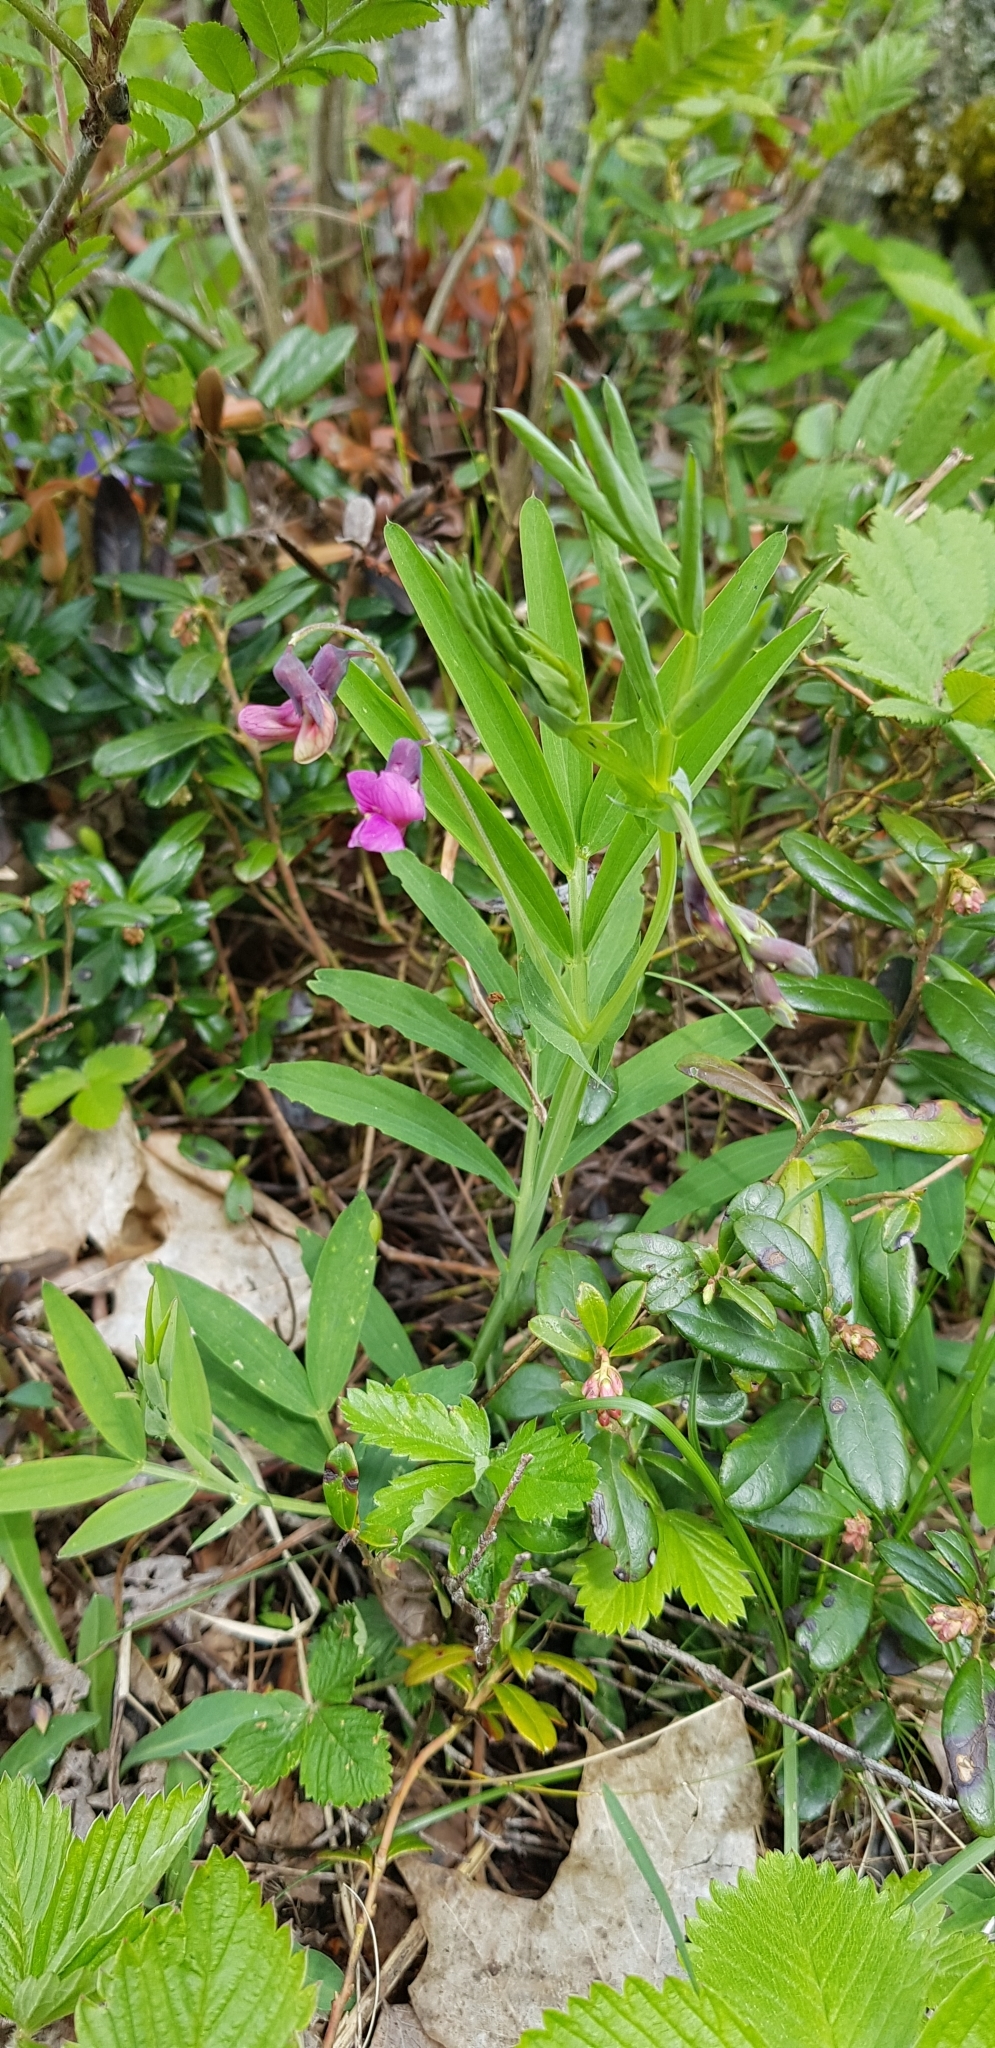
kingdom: Plantae
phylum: Tracheophyta
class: Magnoliopsida
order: Fabales
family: Fabaceae
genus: Lathyrus
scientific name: Lathyrus linifolius
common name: Bitter-vetch
